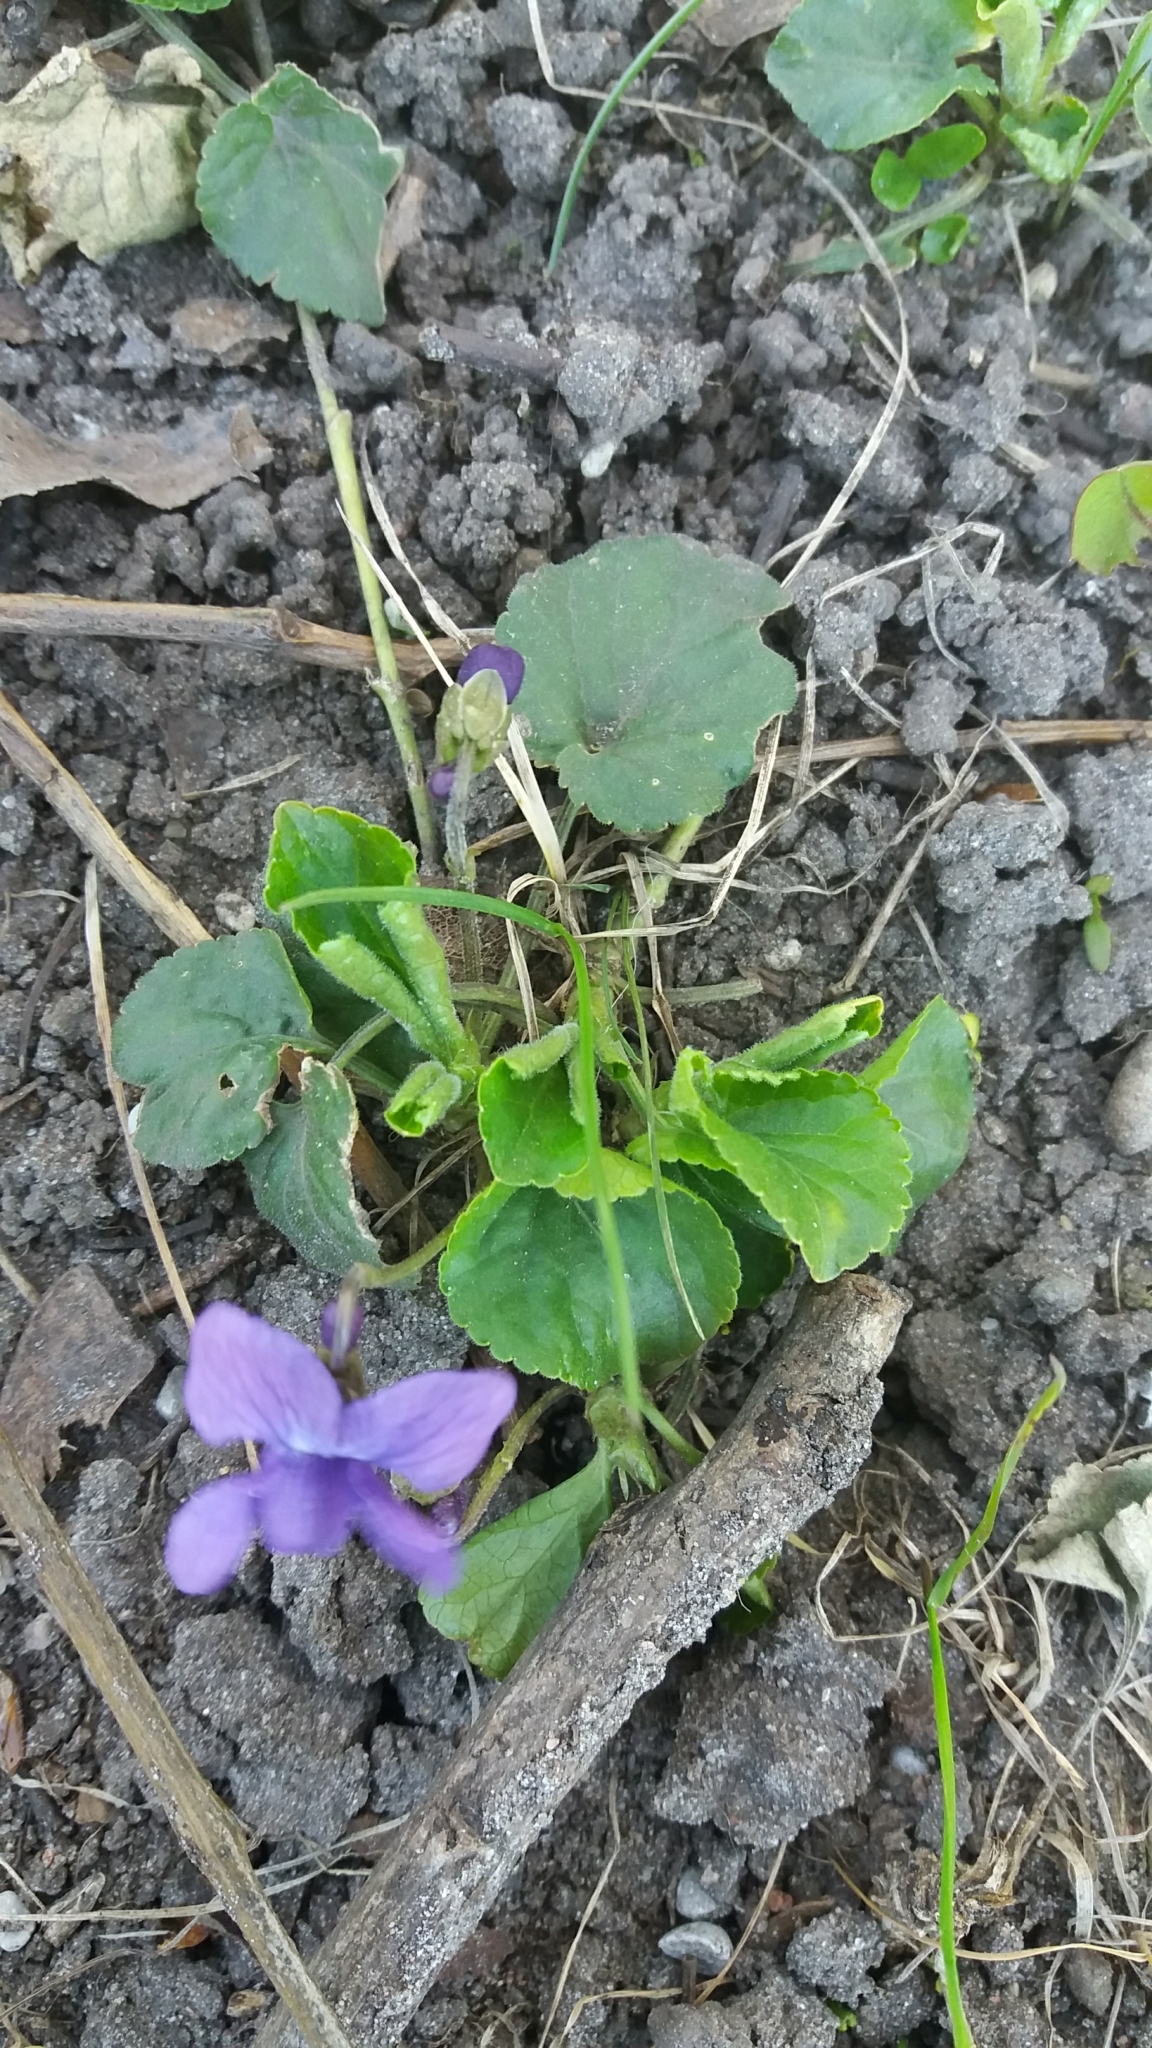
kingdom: Plantae
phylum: Tracheophyta
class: Magnoliopsida
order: Malpighiales
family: Violaceae
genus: Viola
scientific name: Viola odorata
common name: Sweet violet
